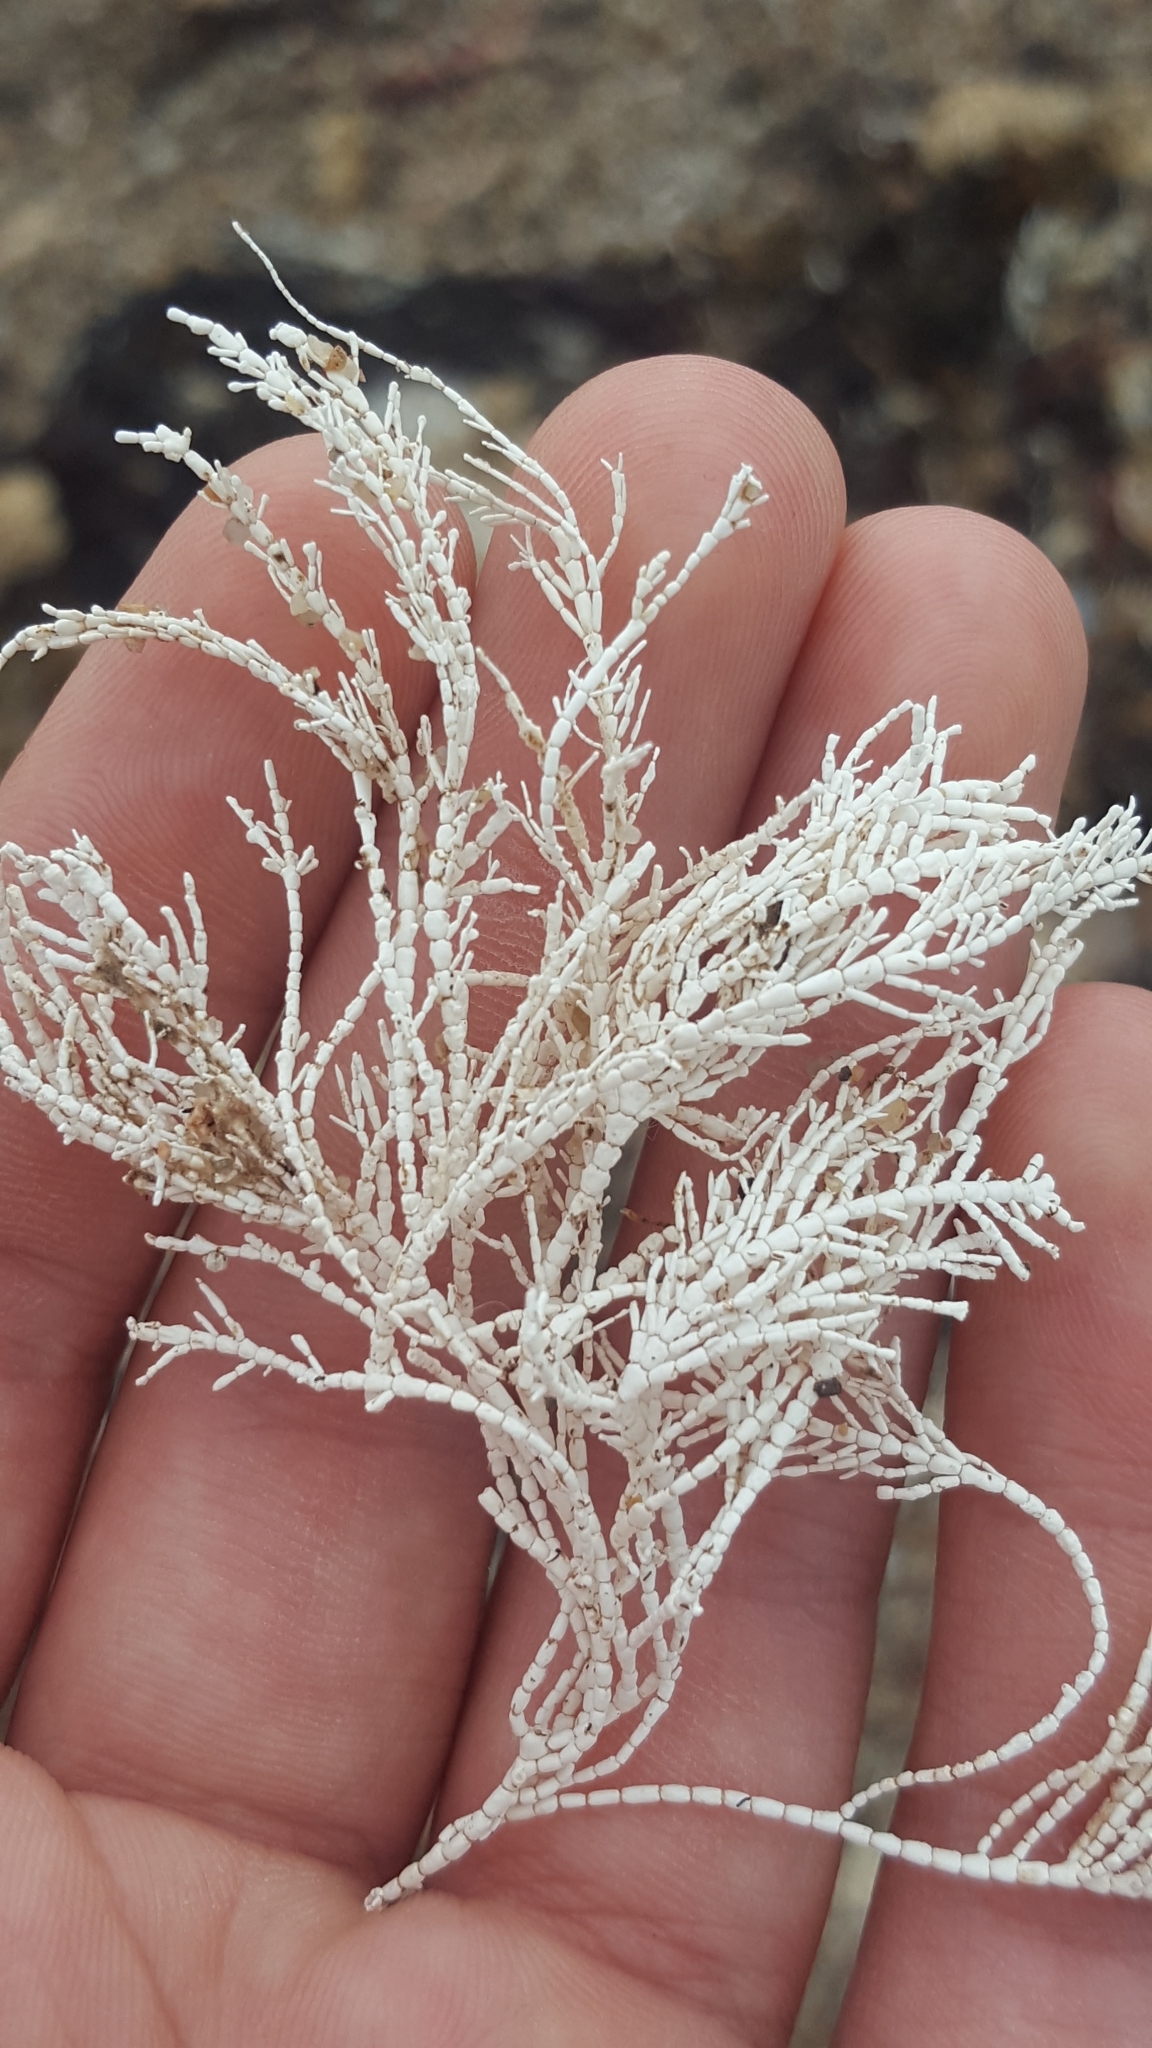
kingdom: Plantae
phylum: Rhodophyta
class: Florideophyceae
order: Corallinales
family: Corallinaceae
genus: Corallina
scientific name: Corallina officinalis
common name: Coral weed
